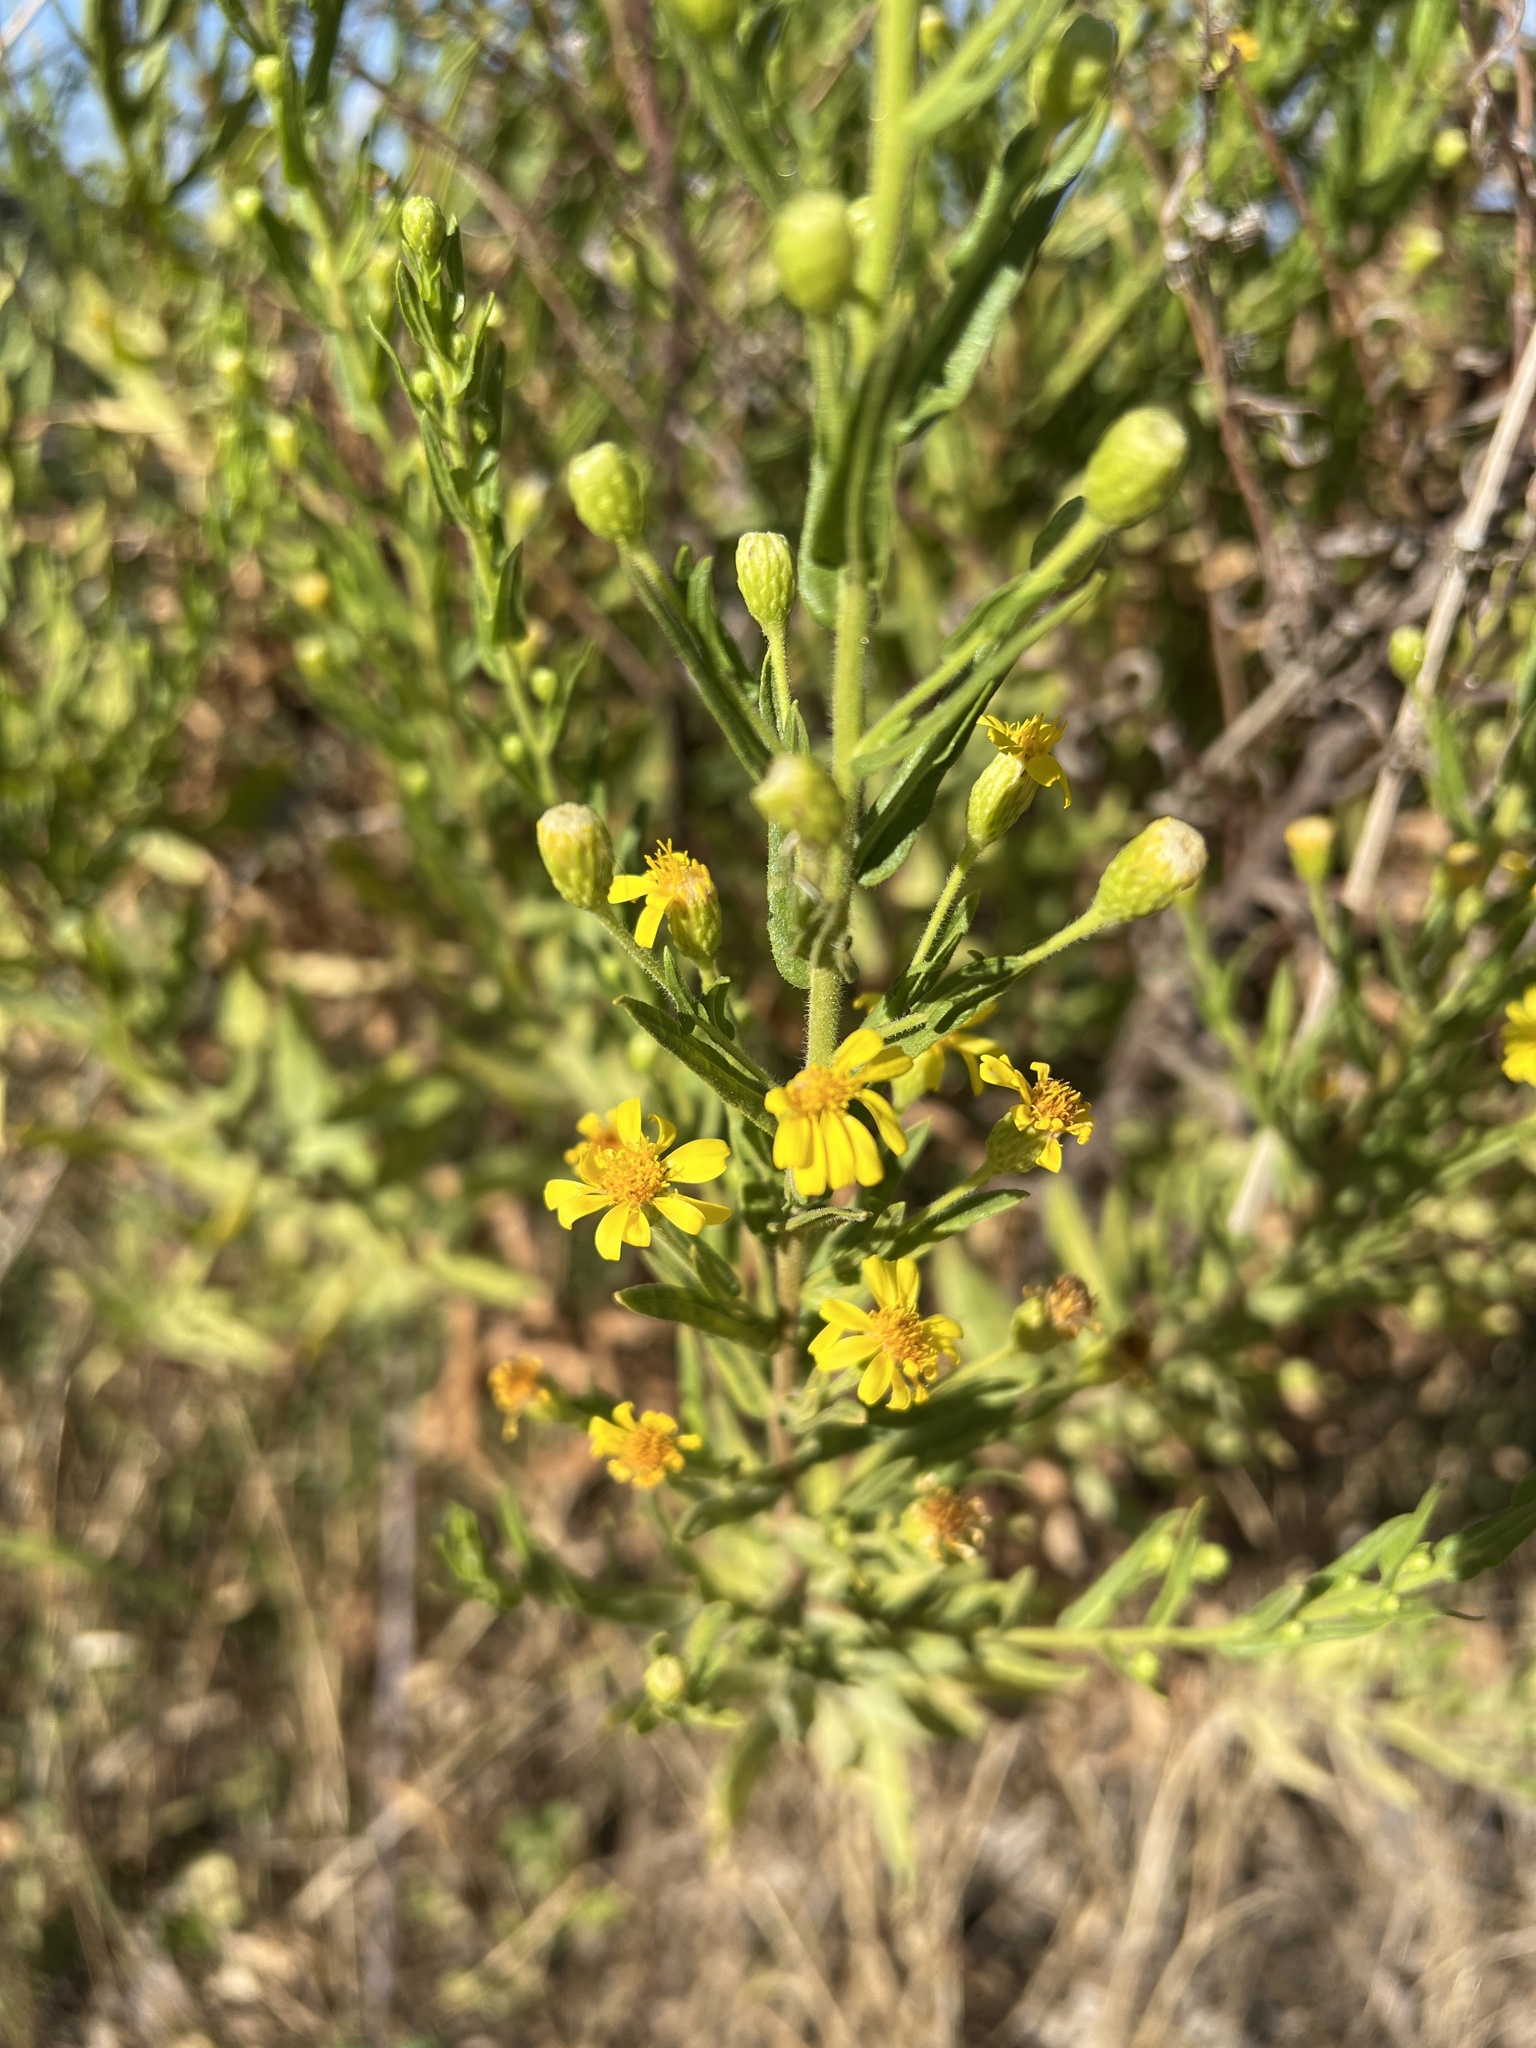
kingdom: Plantae
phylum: Tracheophyta
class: Magnoliopsida
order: Asterales
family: Asteraceae
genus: Dittrichia
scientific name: Dittrichia viscosa
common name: Woody fleabane
